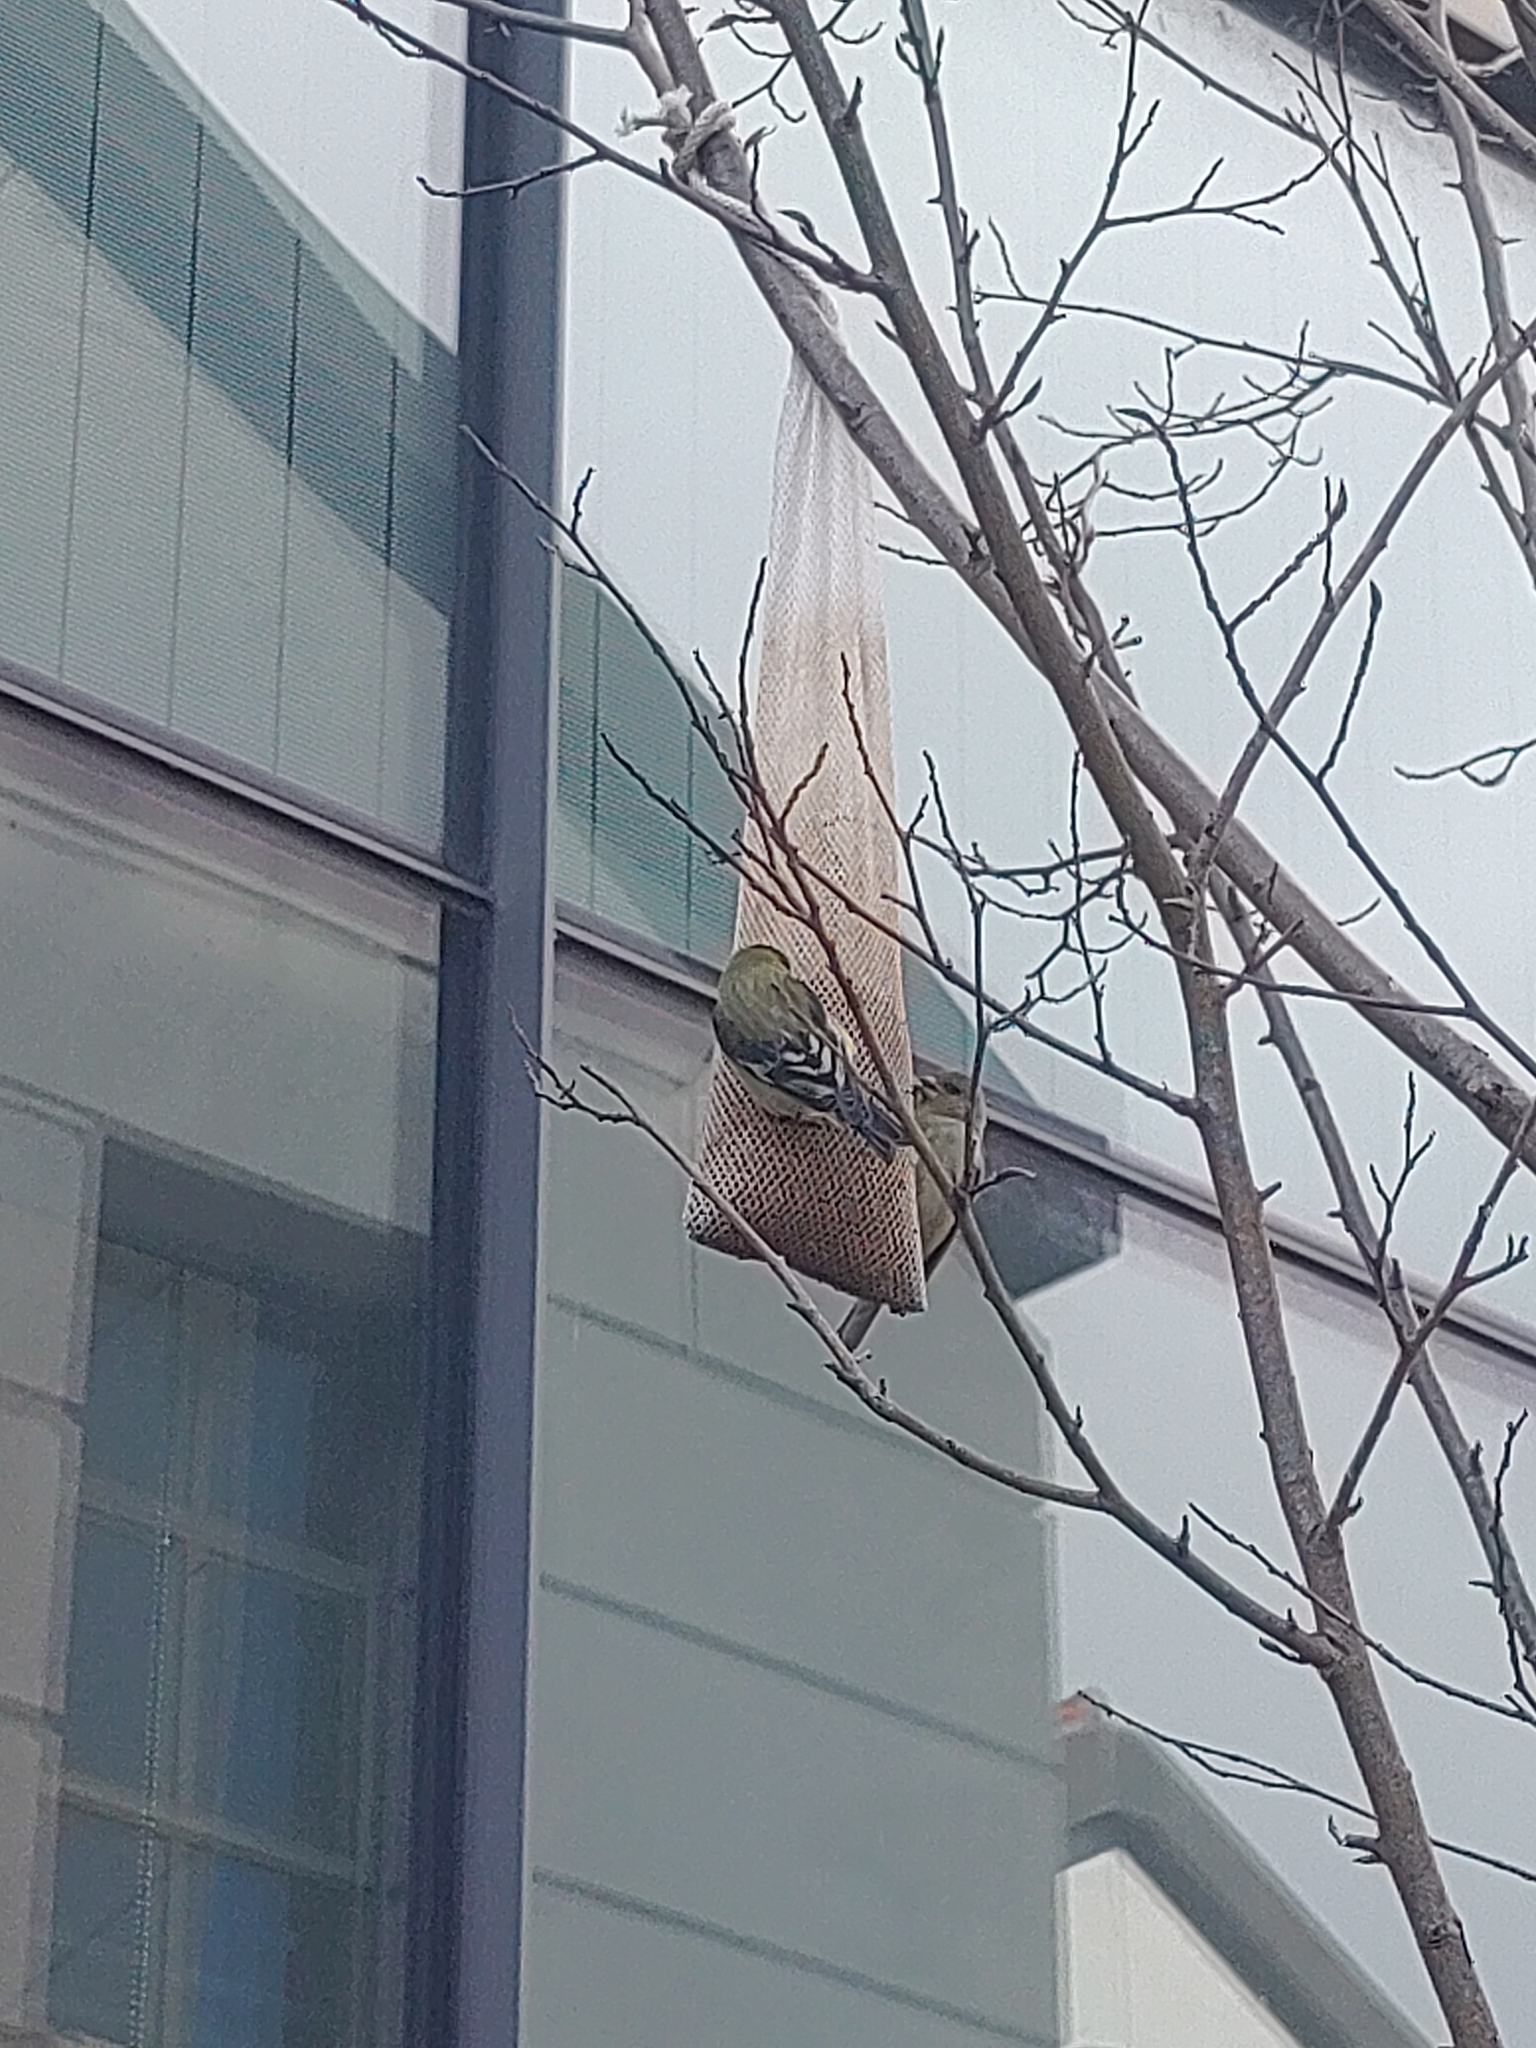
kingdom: Animalia
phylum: Chordata
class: Aves
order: Passeriformes
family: Fringillidae
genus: Spinus
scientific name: Spinus psaltria
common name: Lesser goldfinch
